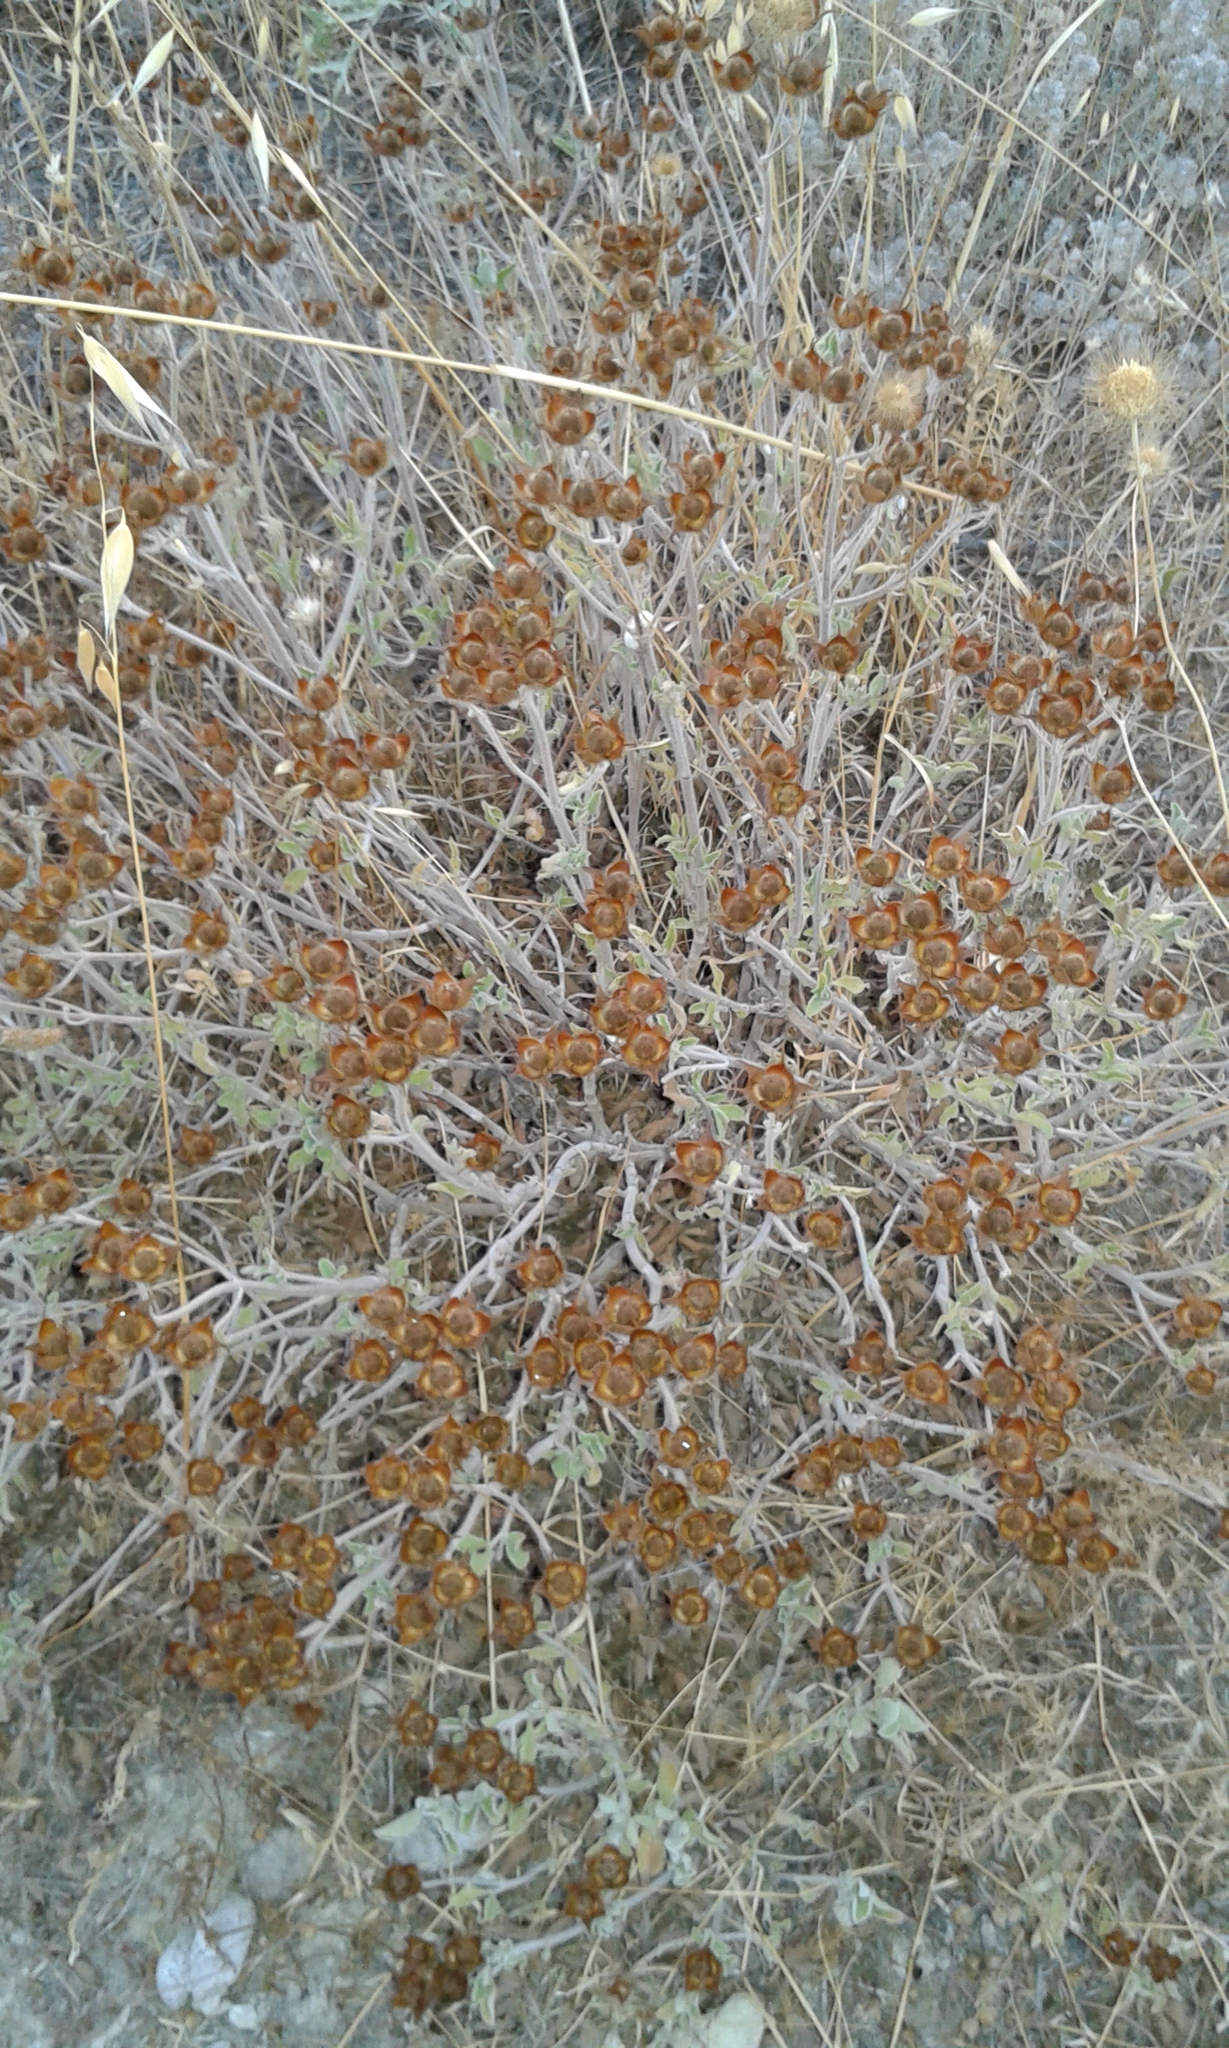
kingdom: Plantae
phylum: Tracheophyta
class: Magnoliopsida
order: Malvales
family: Cistaceae
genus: Cistus
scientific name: Cistus creticus
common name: Cretan rockrose
